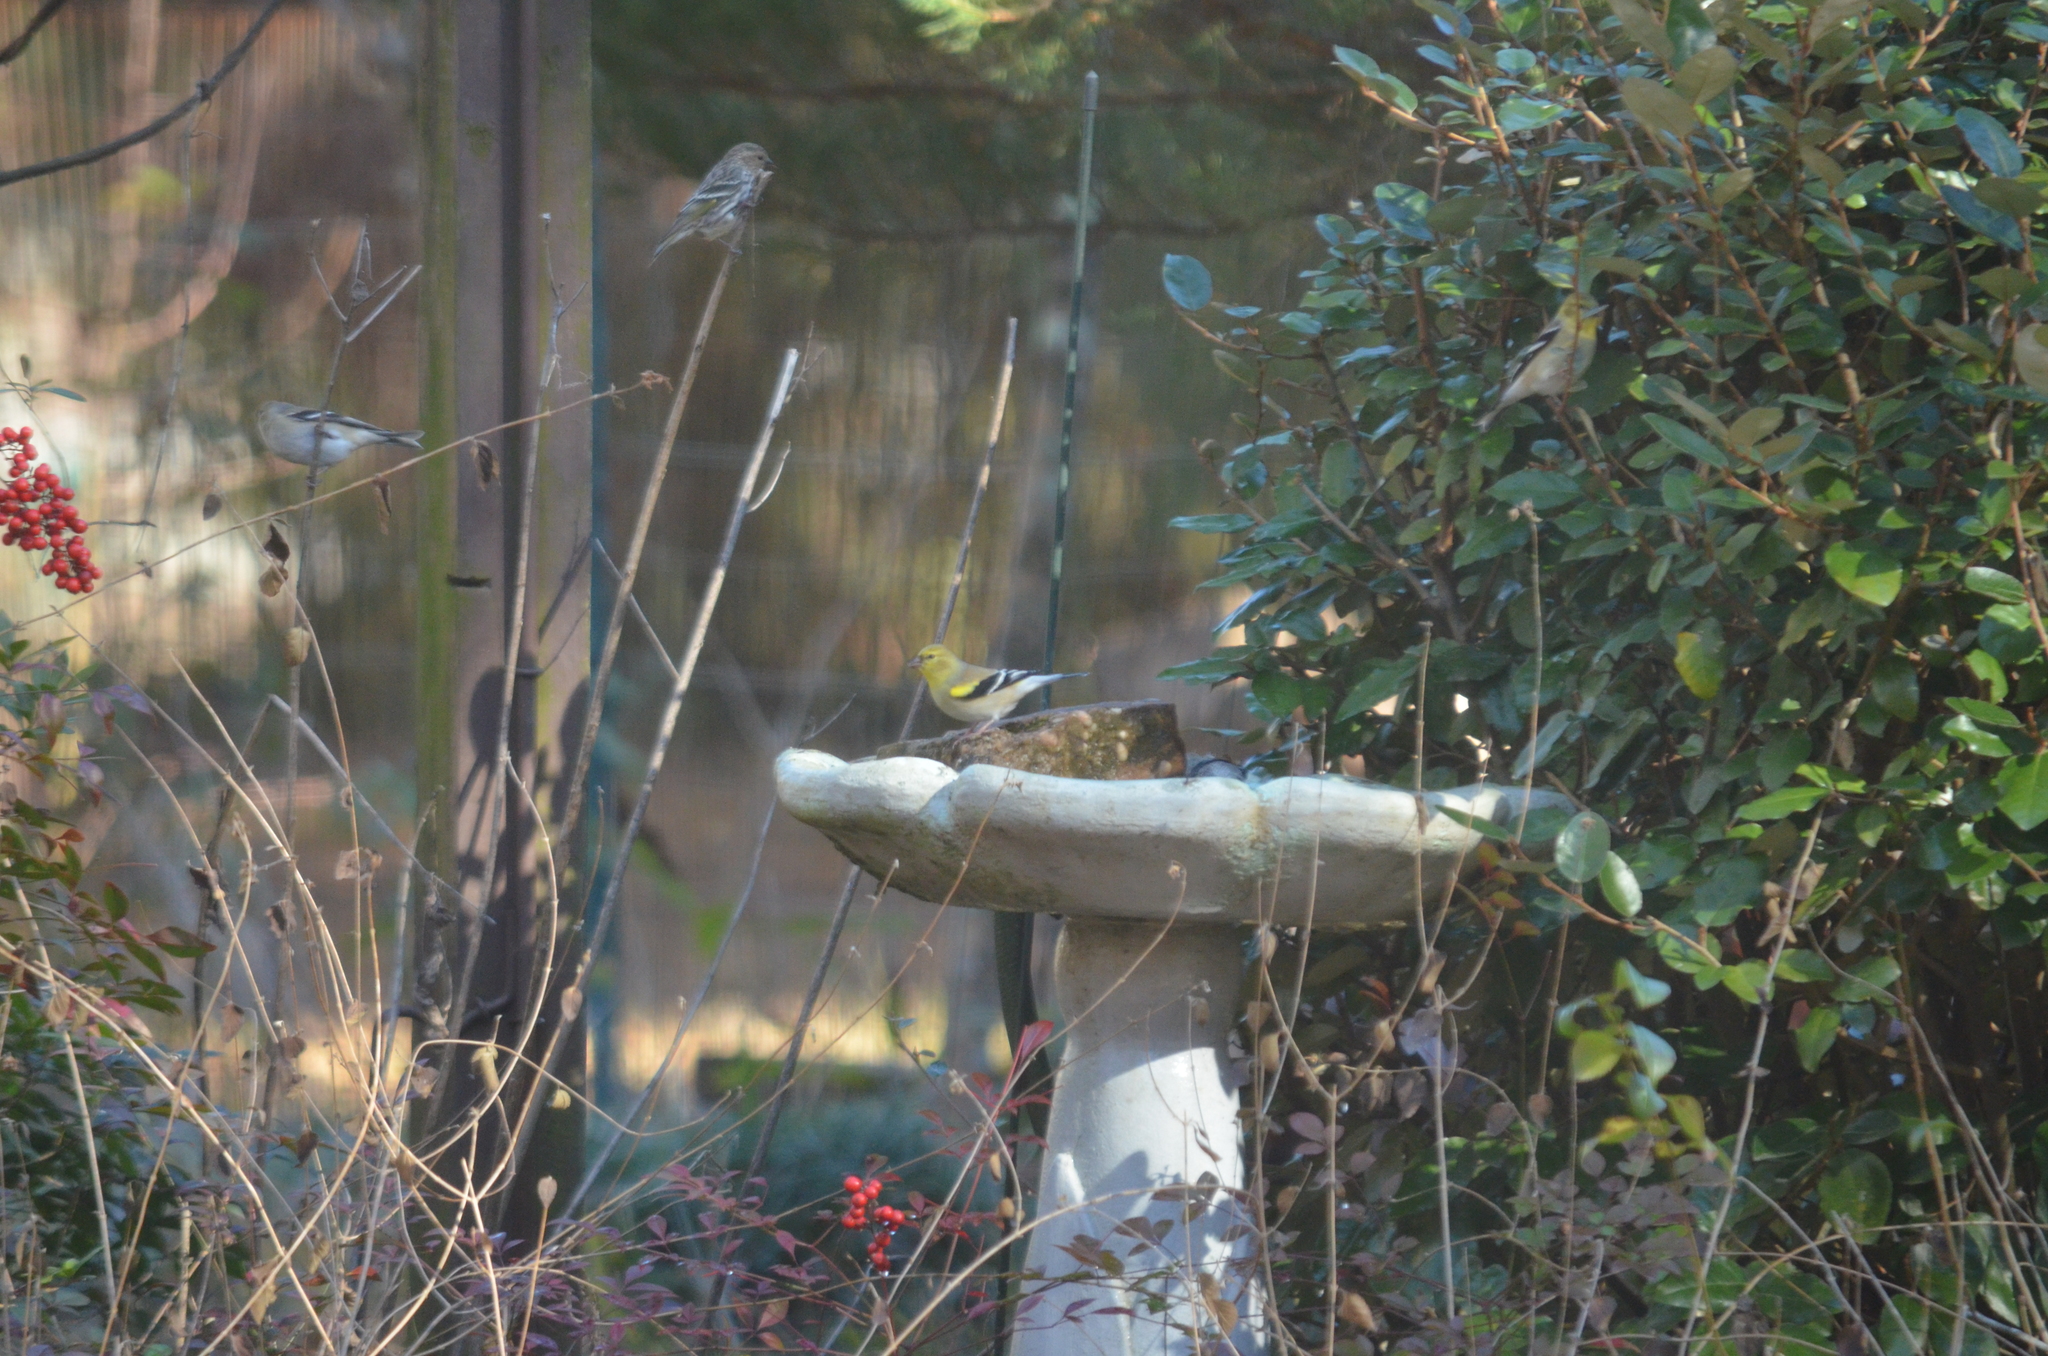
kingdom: Animalia
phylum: Chordata
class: Aves
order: Passeriformes
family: Fringillidae
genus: Spinus
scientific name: Spinus tristis
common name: American goldfinch
